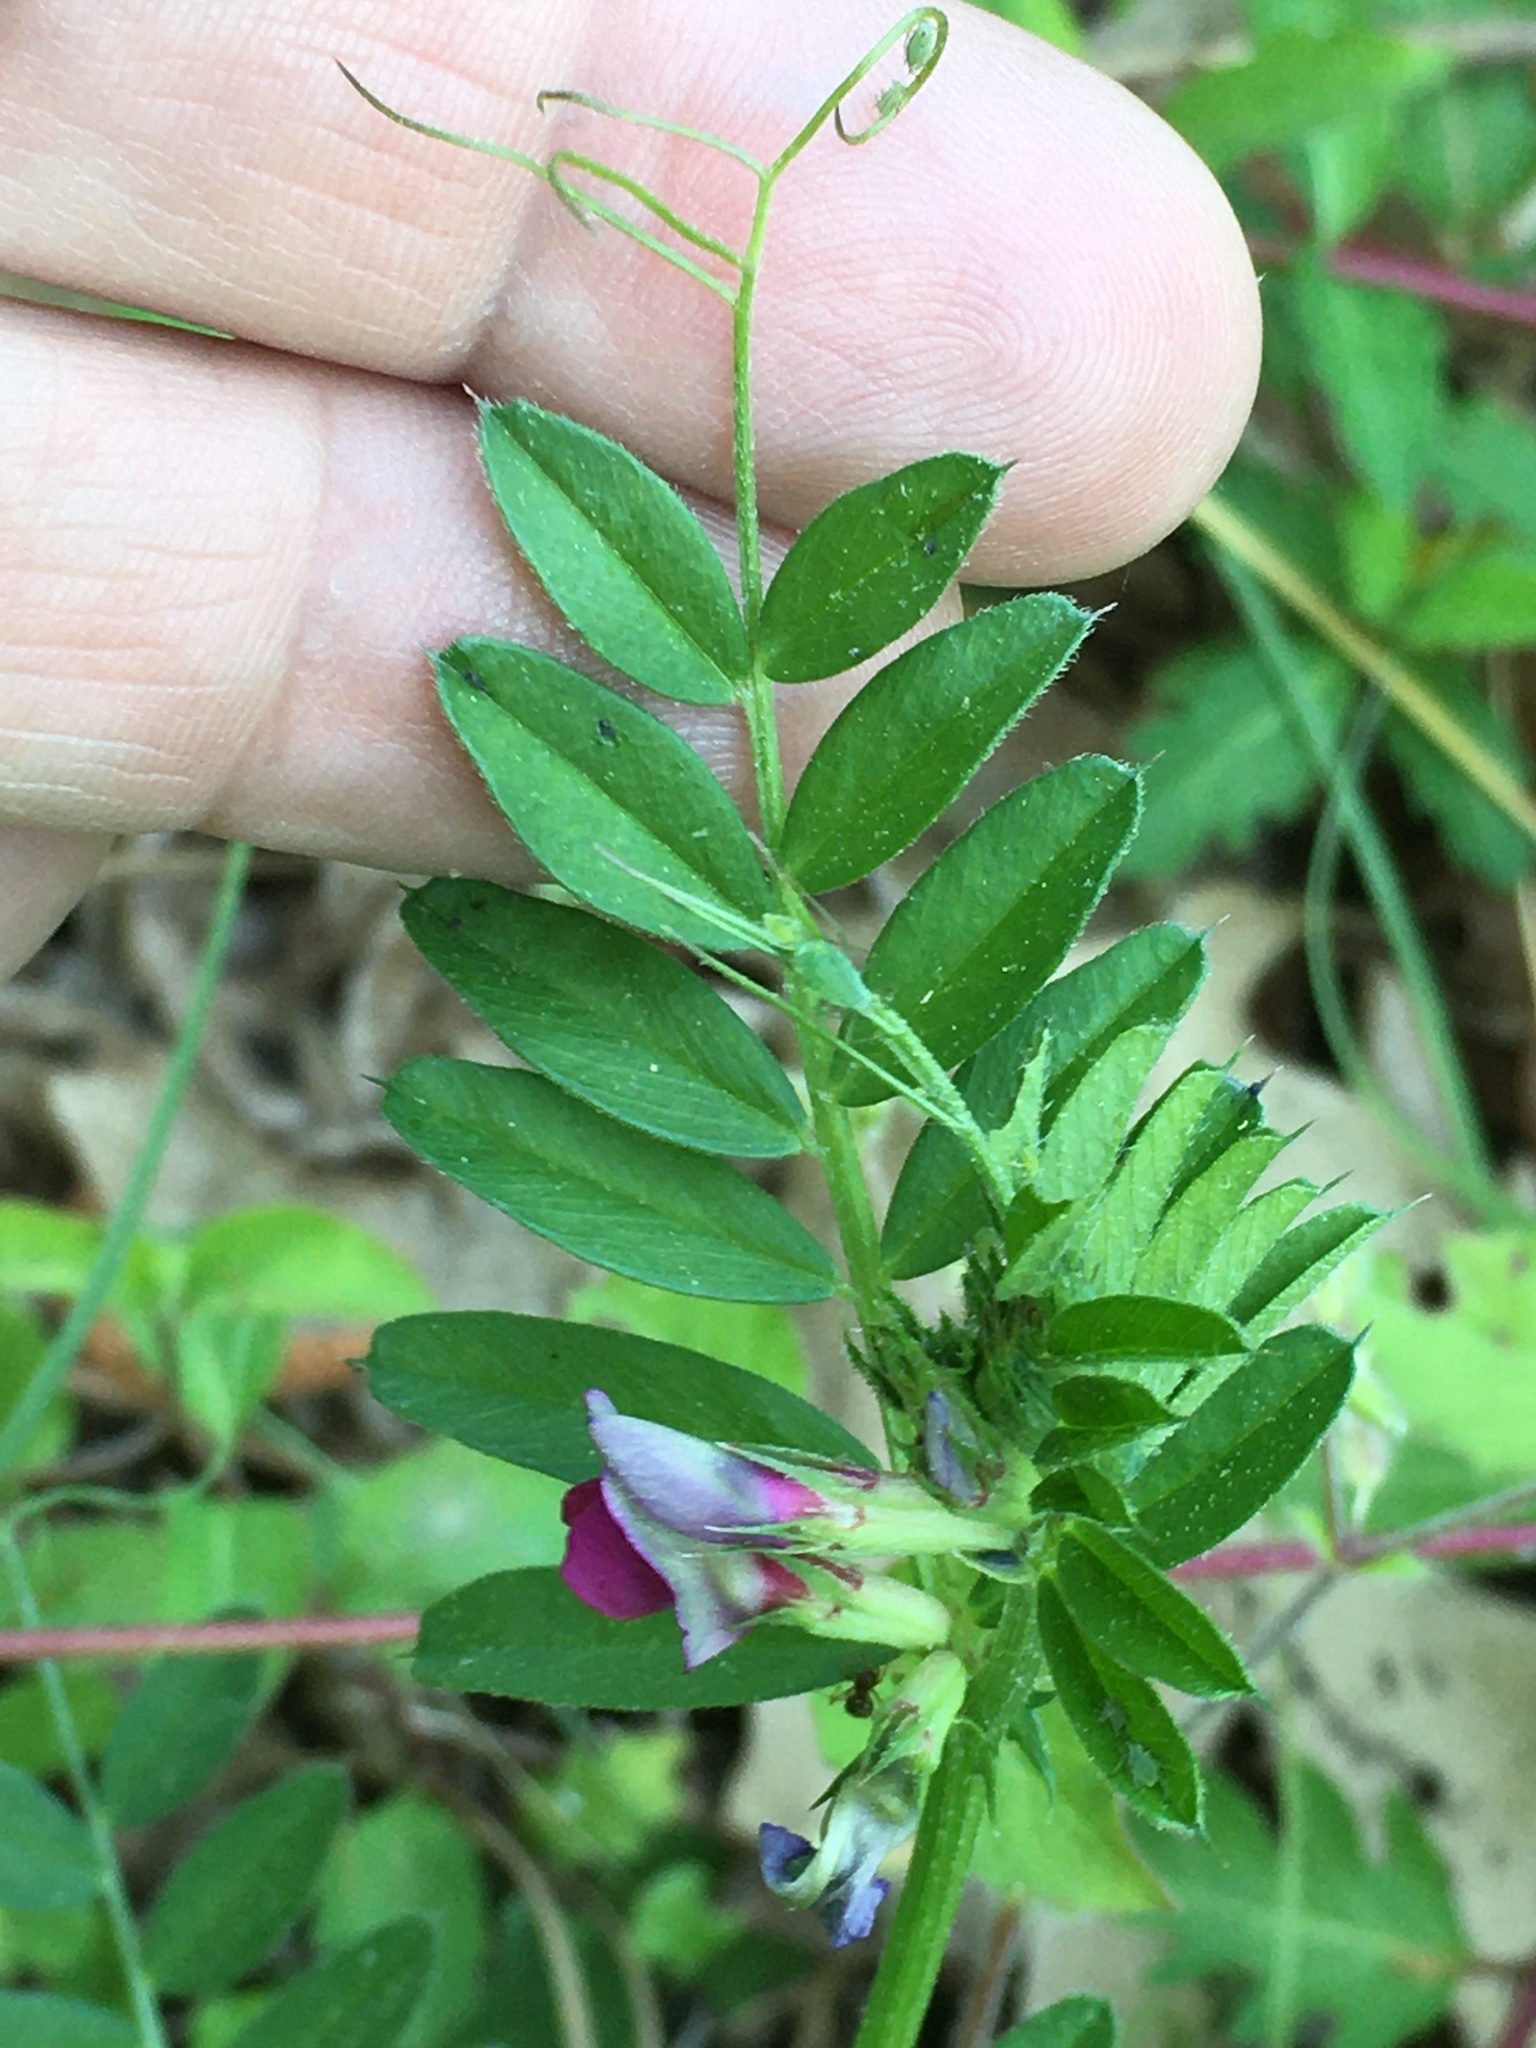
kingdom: Plantae
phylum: Tracheophyta
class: Magnoliopsida
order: Fabales
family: Fabaceae
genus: Vicia
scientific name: Vicia sativa
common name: Garden vetch
